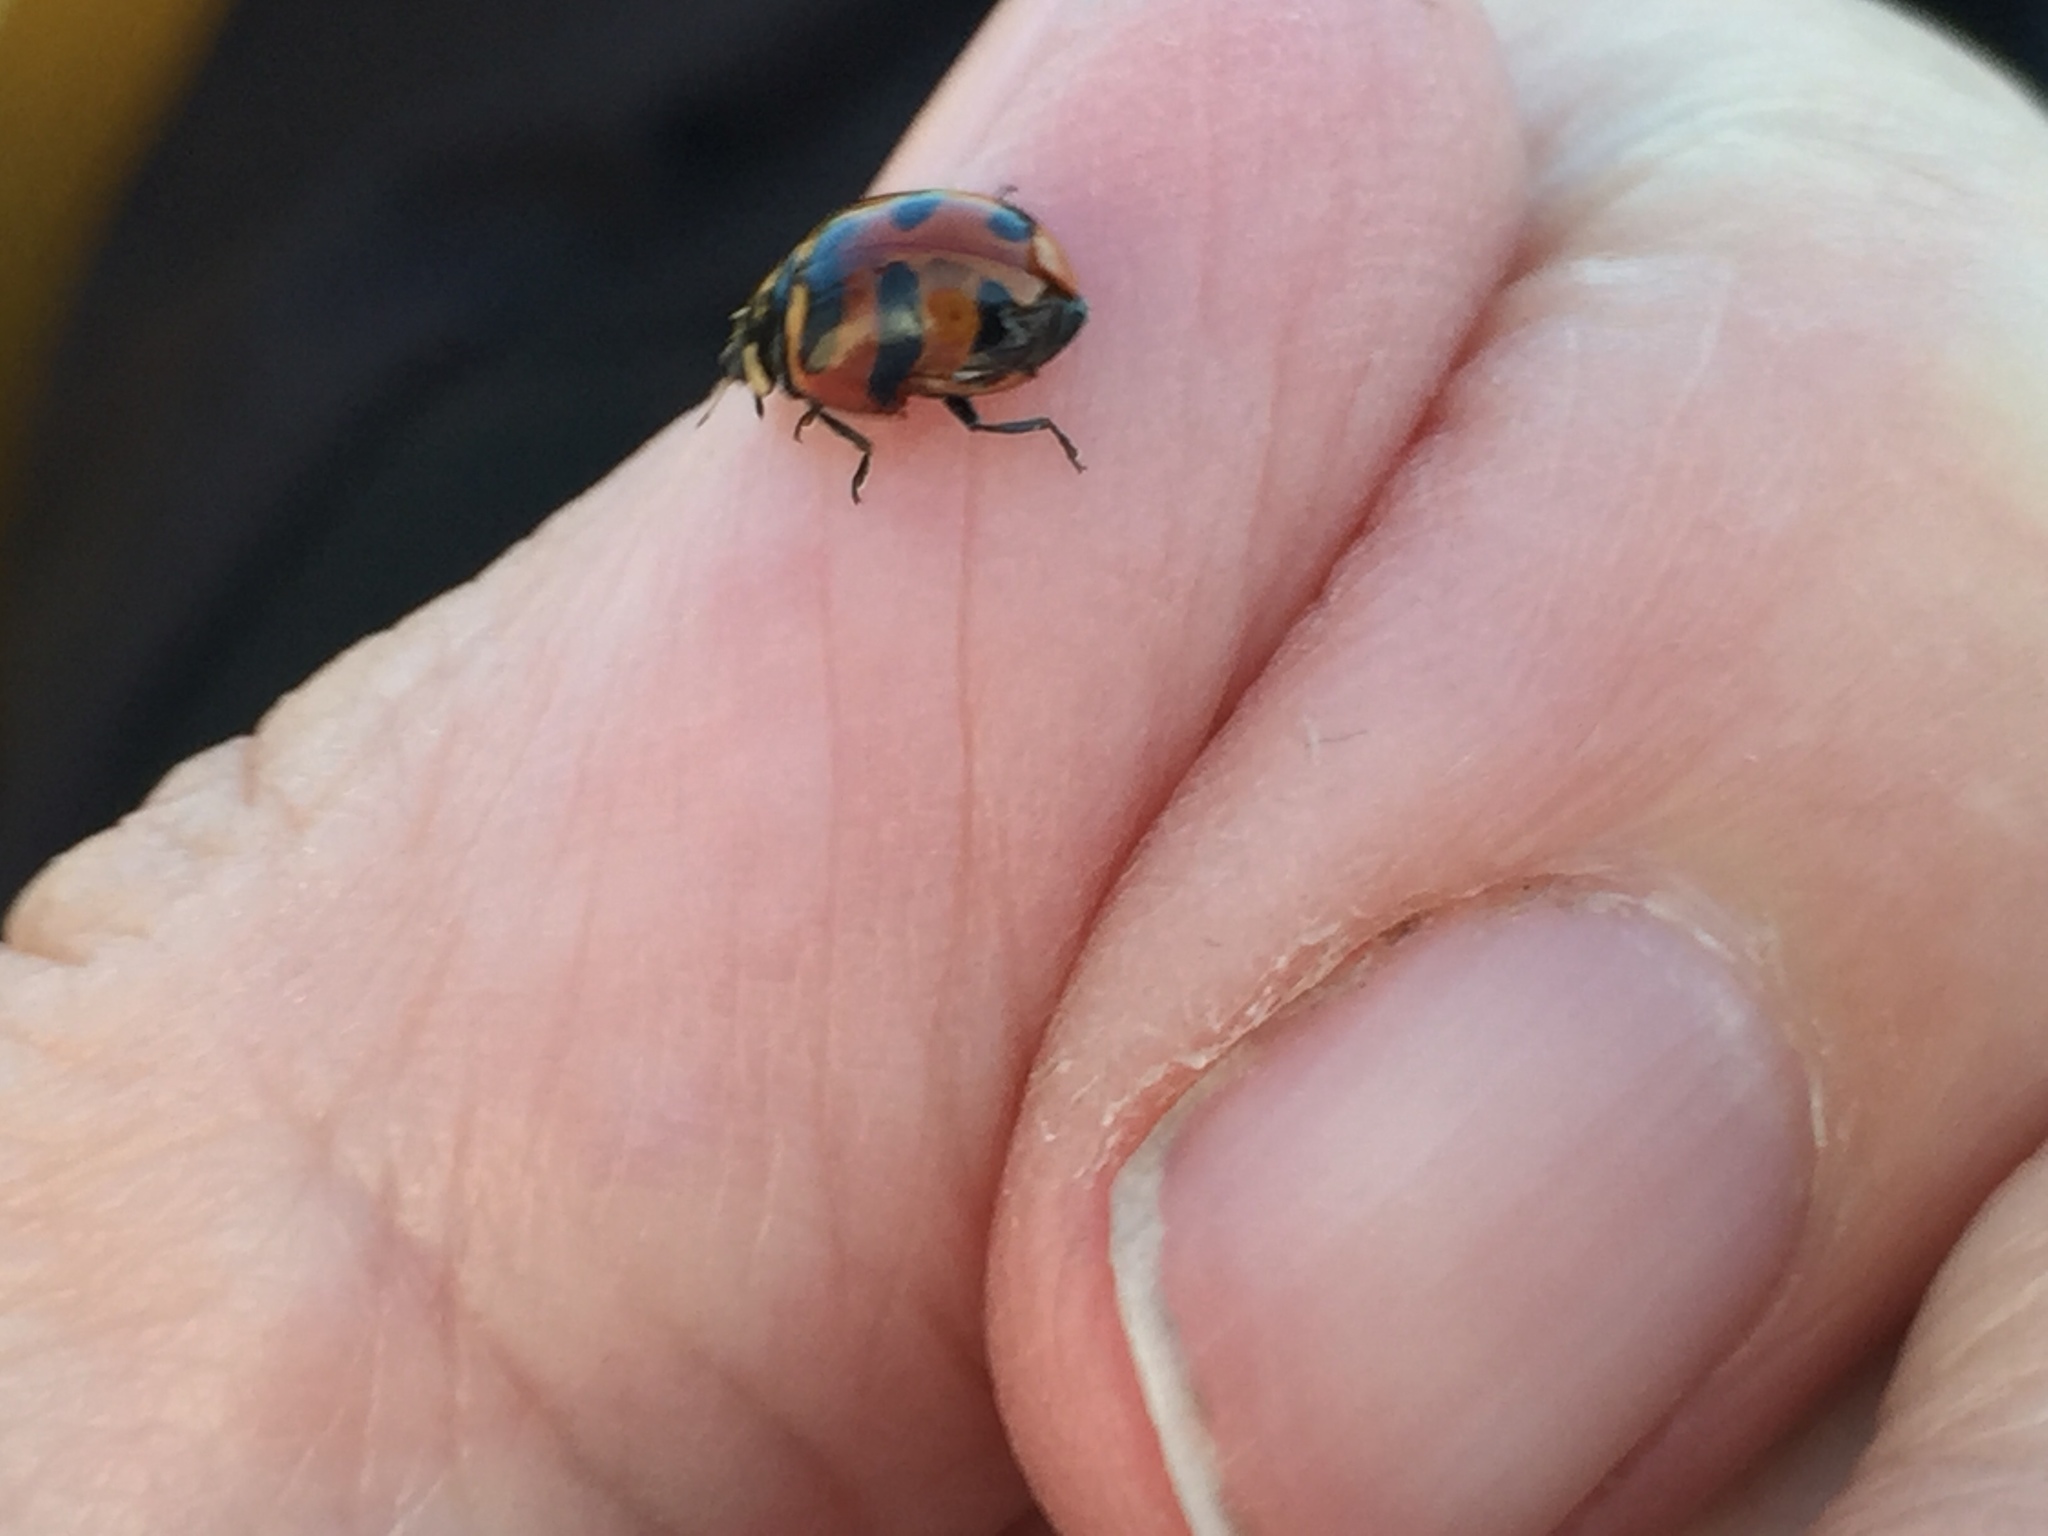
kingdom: Animalia
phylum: Arthropoda
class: Insecta
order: Coleoptera
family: Coccinellidae
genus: Coccinella
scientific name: Coccinella trifasciata
